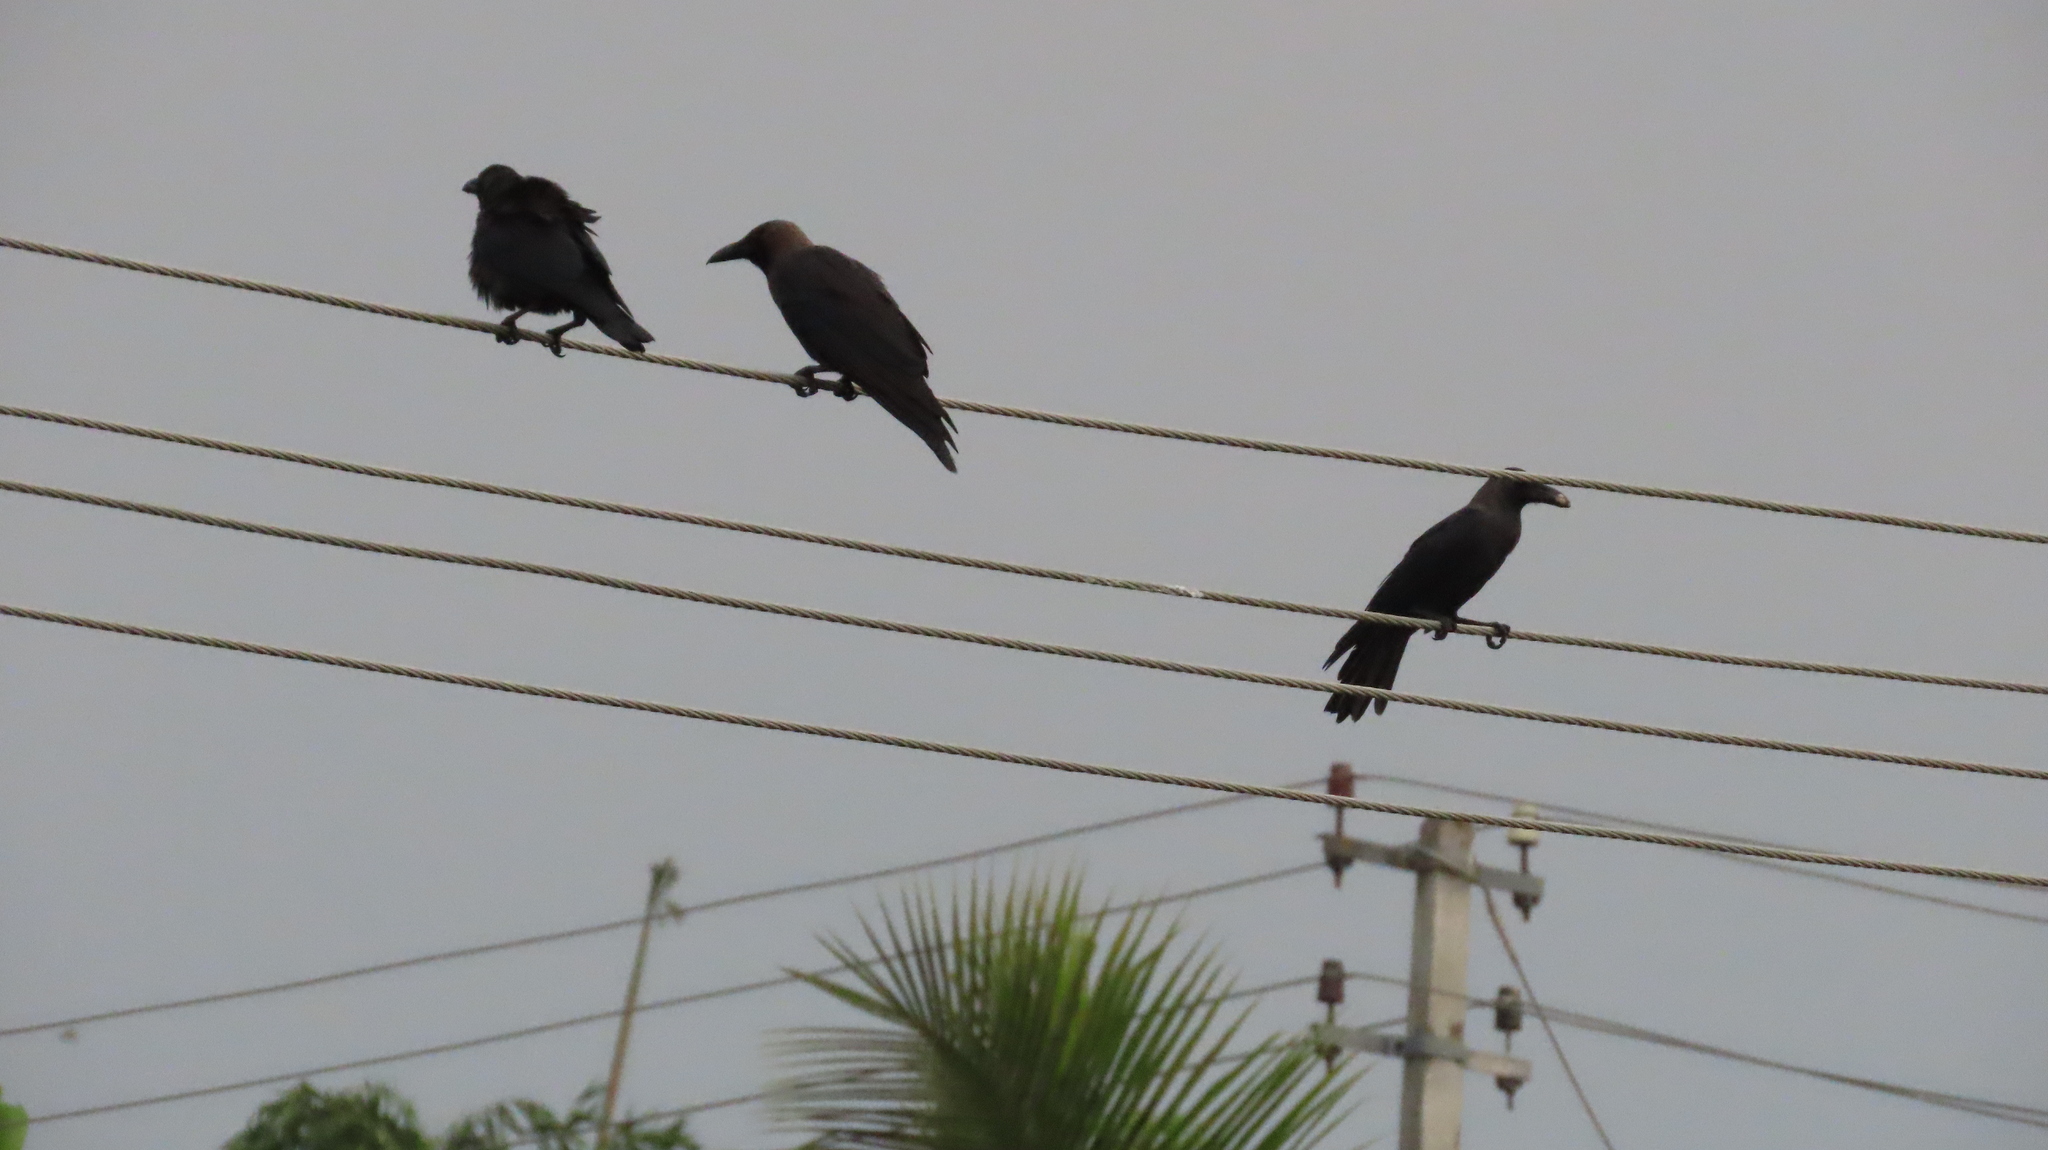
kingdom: Animalia
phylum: Chordata
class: Aves
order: Passeriformes
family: Corvidae
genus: Corvus
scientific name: Corvus splendens
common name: House crow
